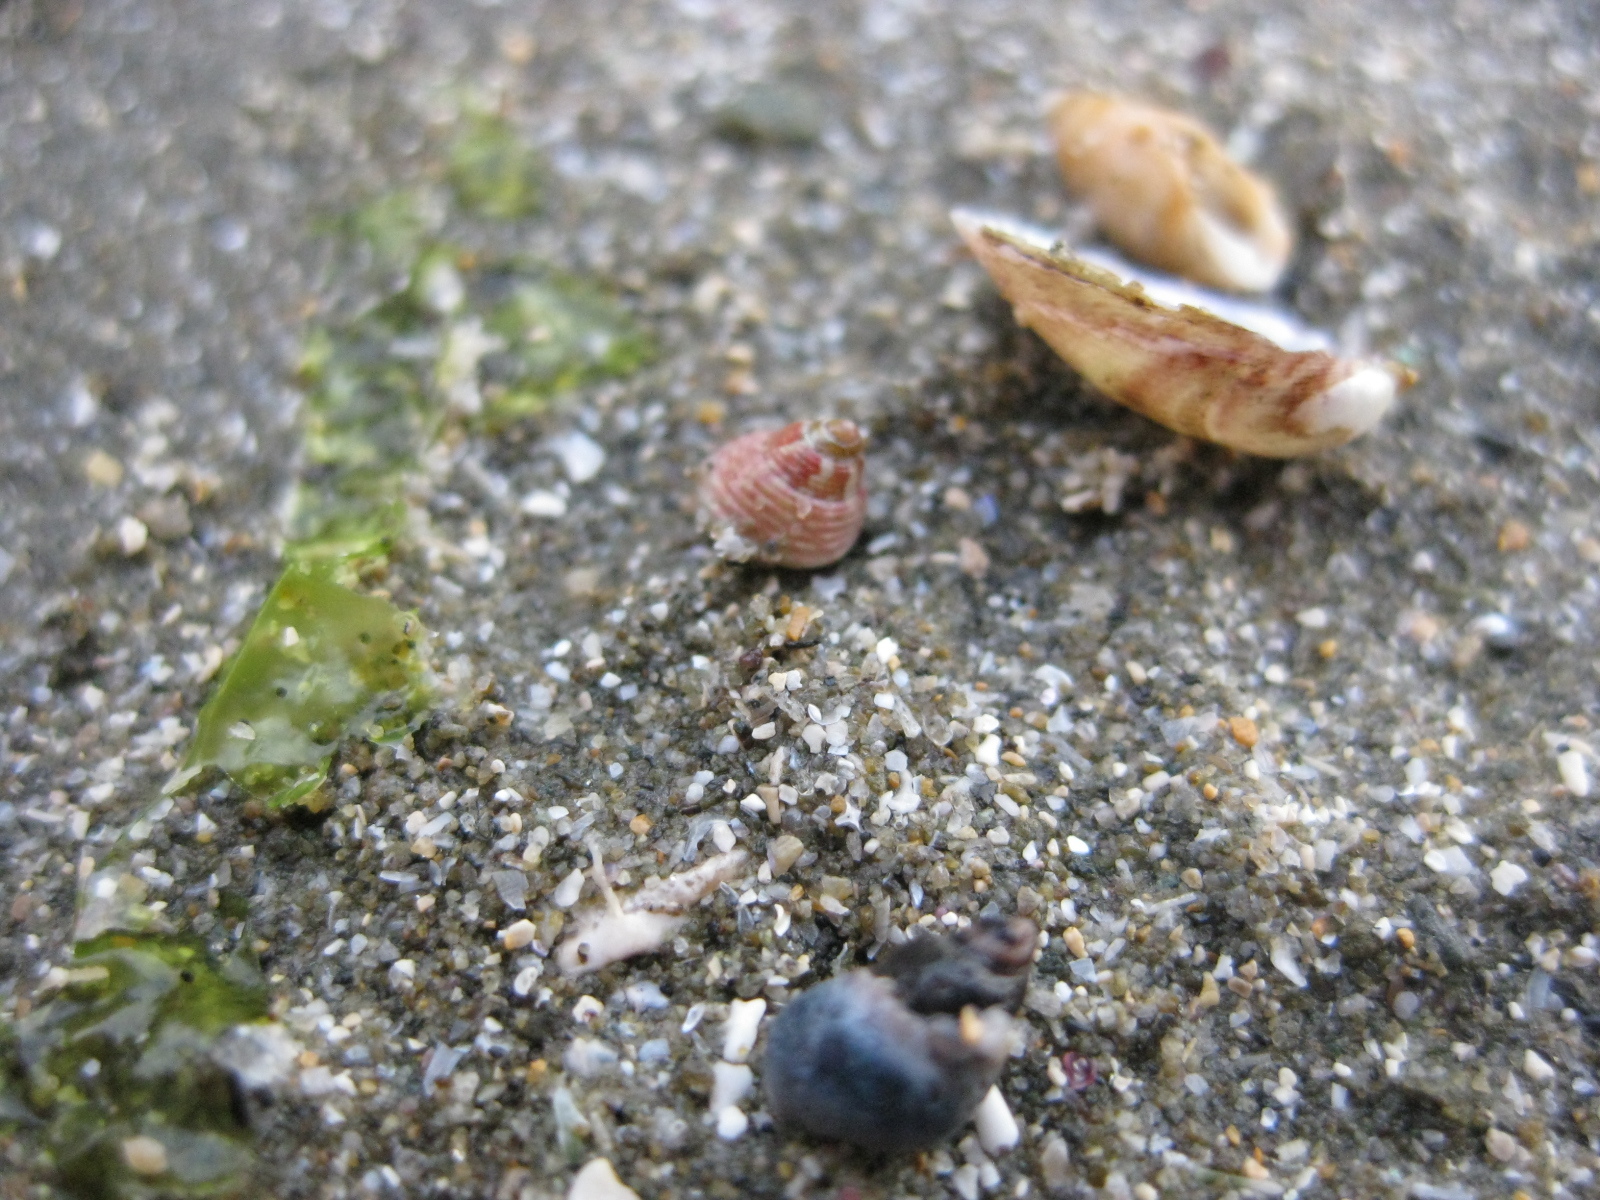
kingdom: Animalia
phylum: Mollusca
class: Gastropoda
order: Trochida
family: Trochidae
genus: Micrelenchus
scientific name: Micrelenchus sanguineus
